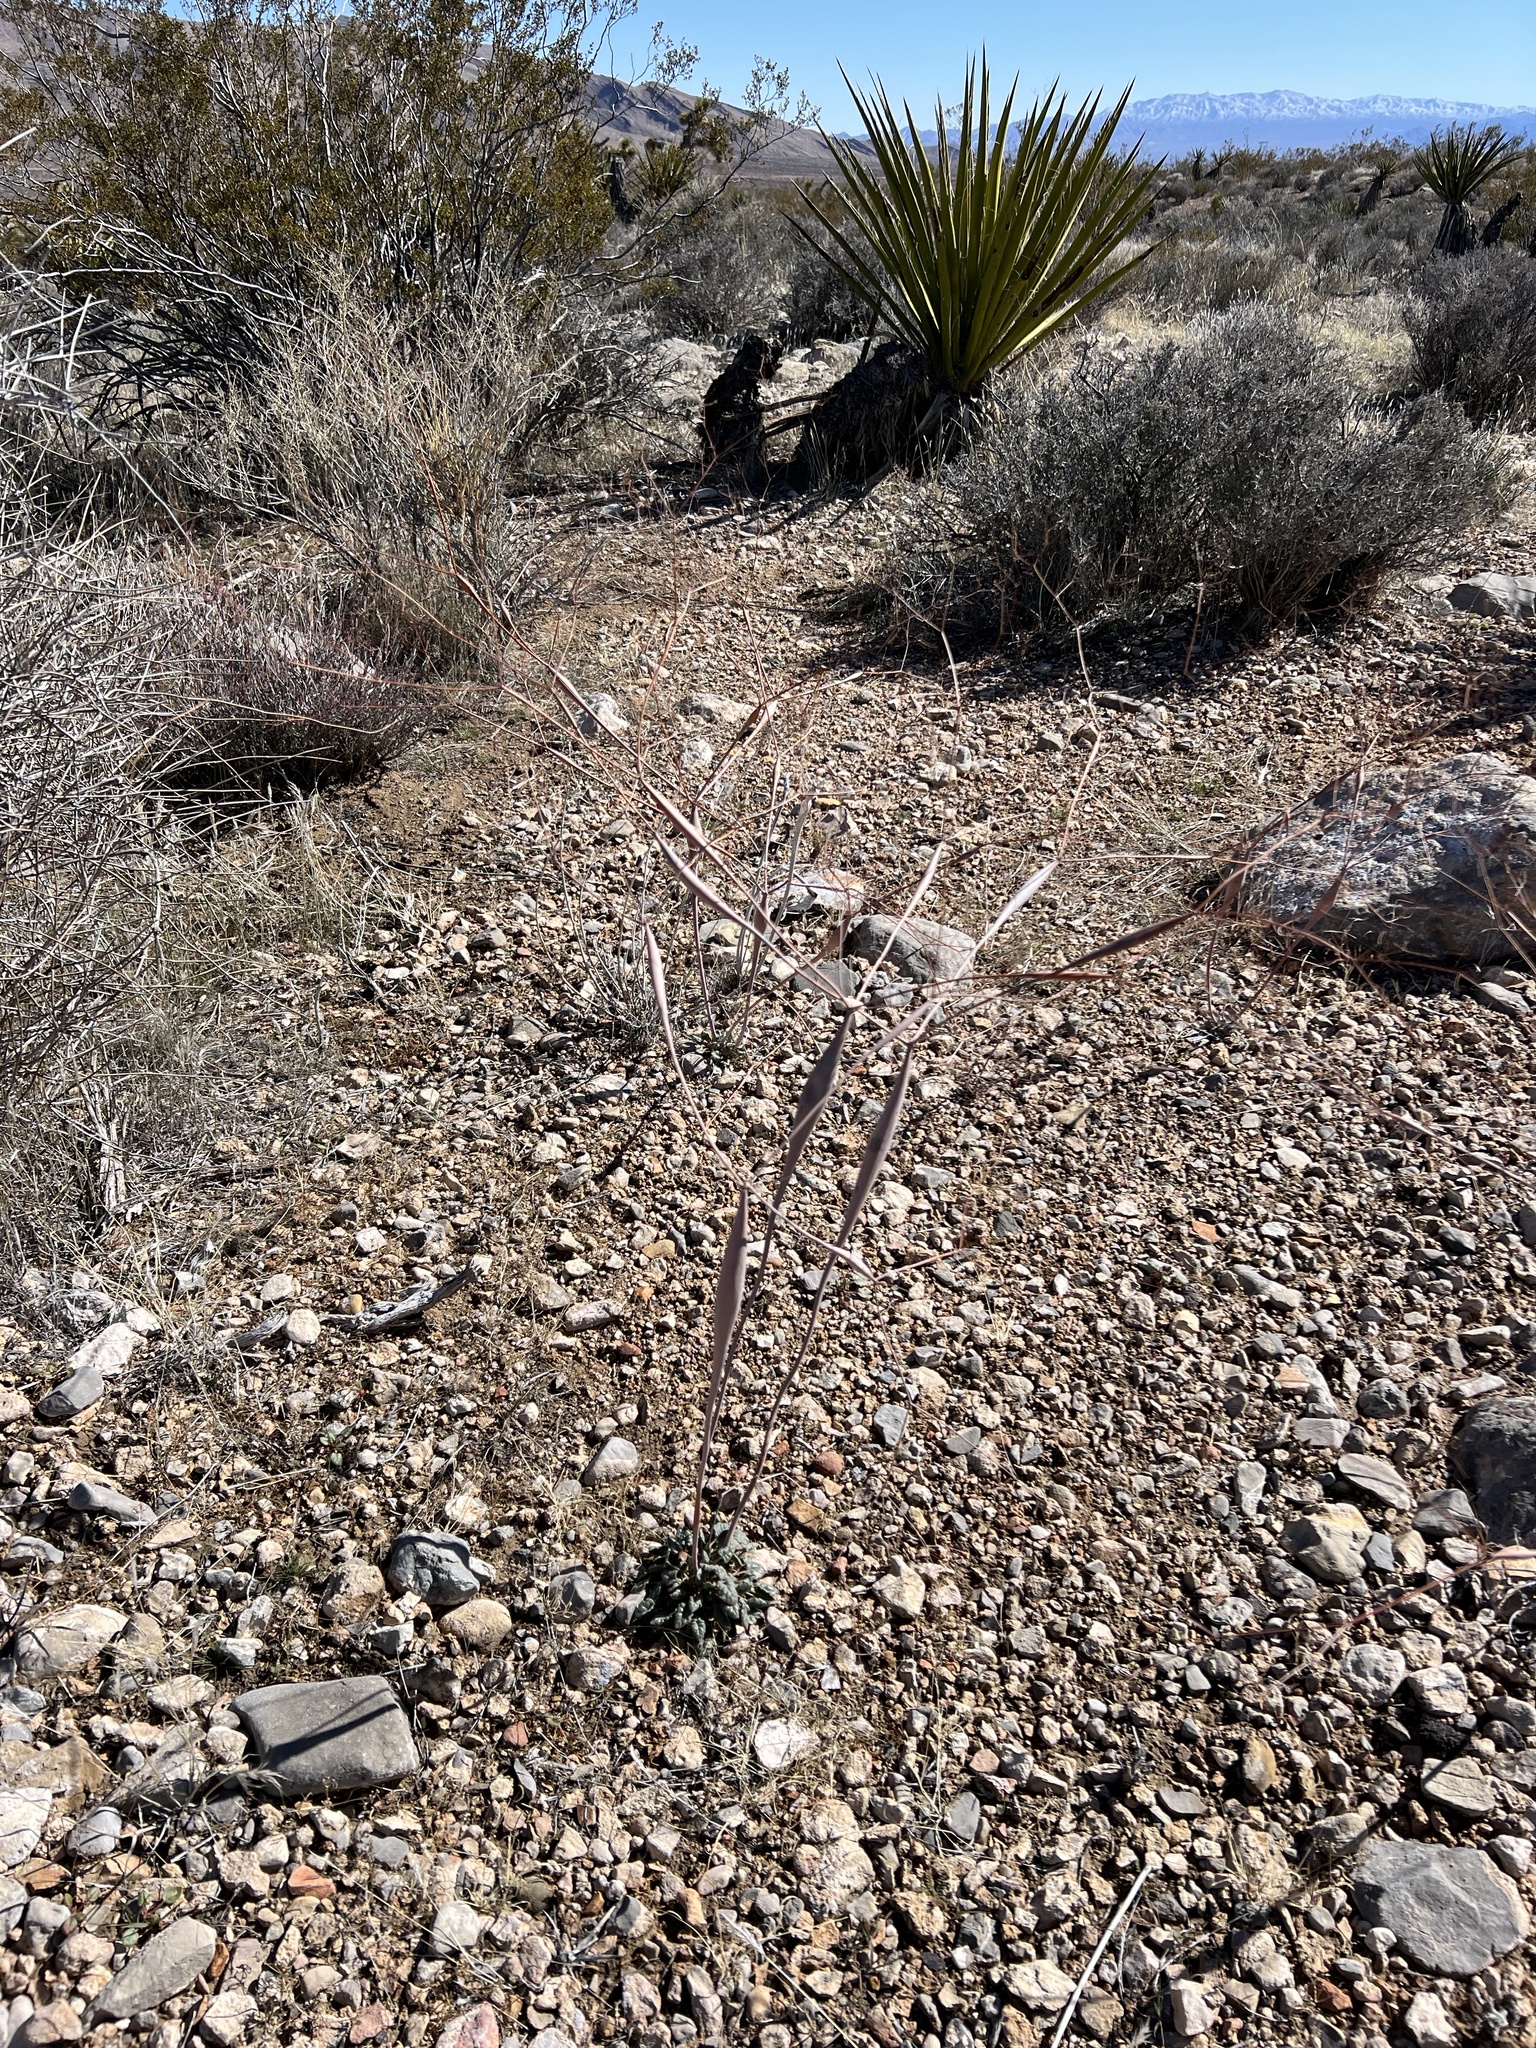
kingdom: Plantae
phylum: Tracheophyta
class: Magnoliopsida
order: Caryophyllales
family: Polygonaceae
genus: Eriogonum
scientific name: Eriogonum inflatum
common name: Desert trumpet
